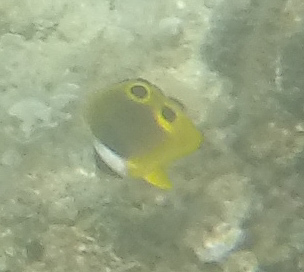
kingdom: Animalia
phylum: Chordata
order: Perciformes
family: Chaetodontidae
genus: Chaetodon
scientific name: Chaetodon lunula
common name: Raccoon butterflyfish
